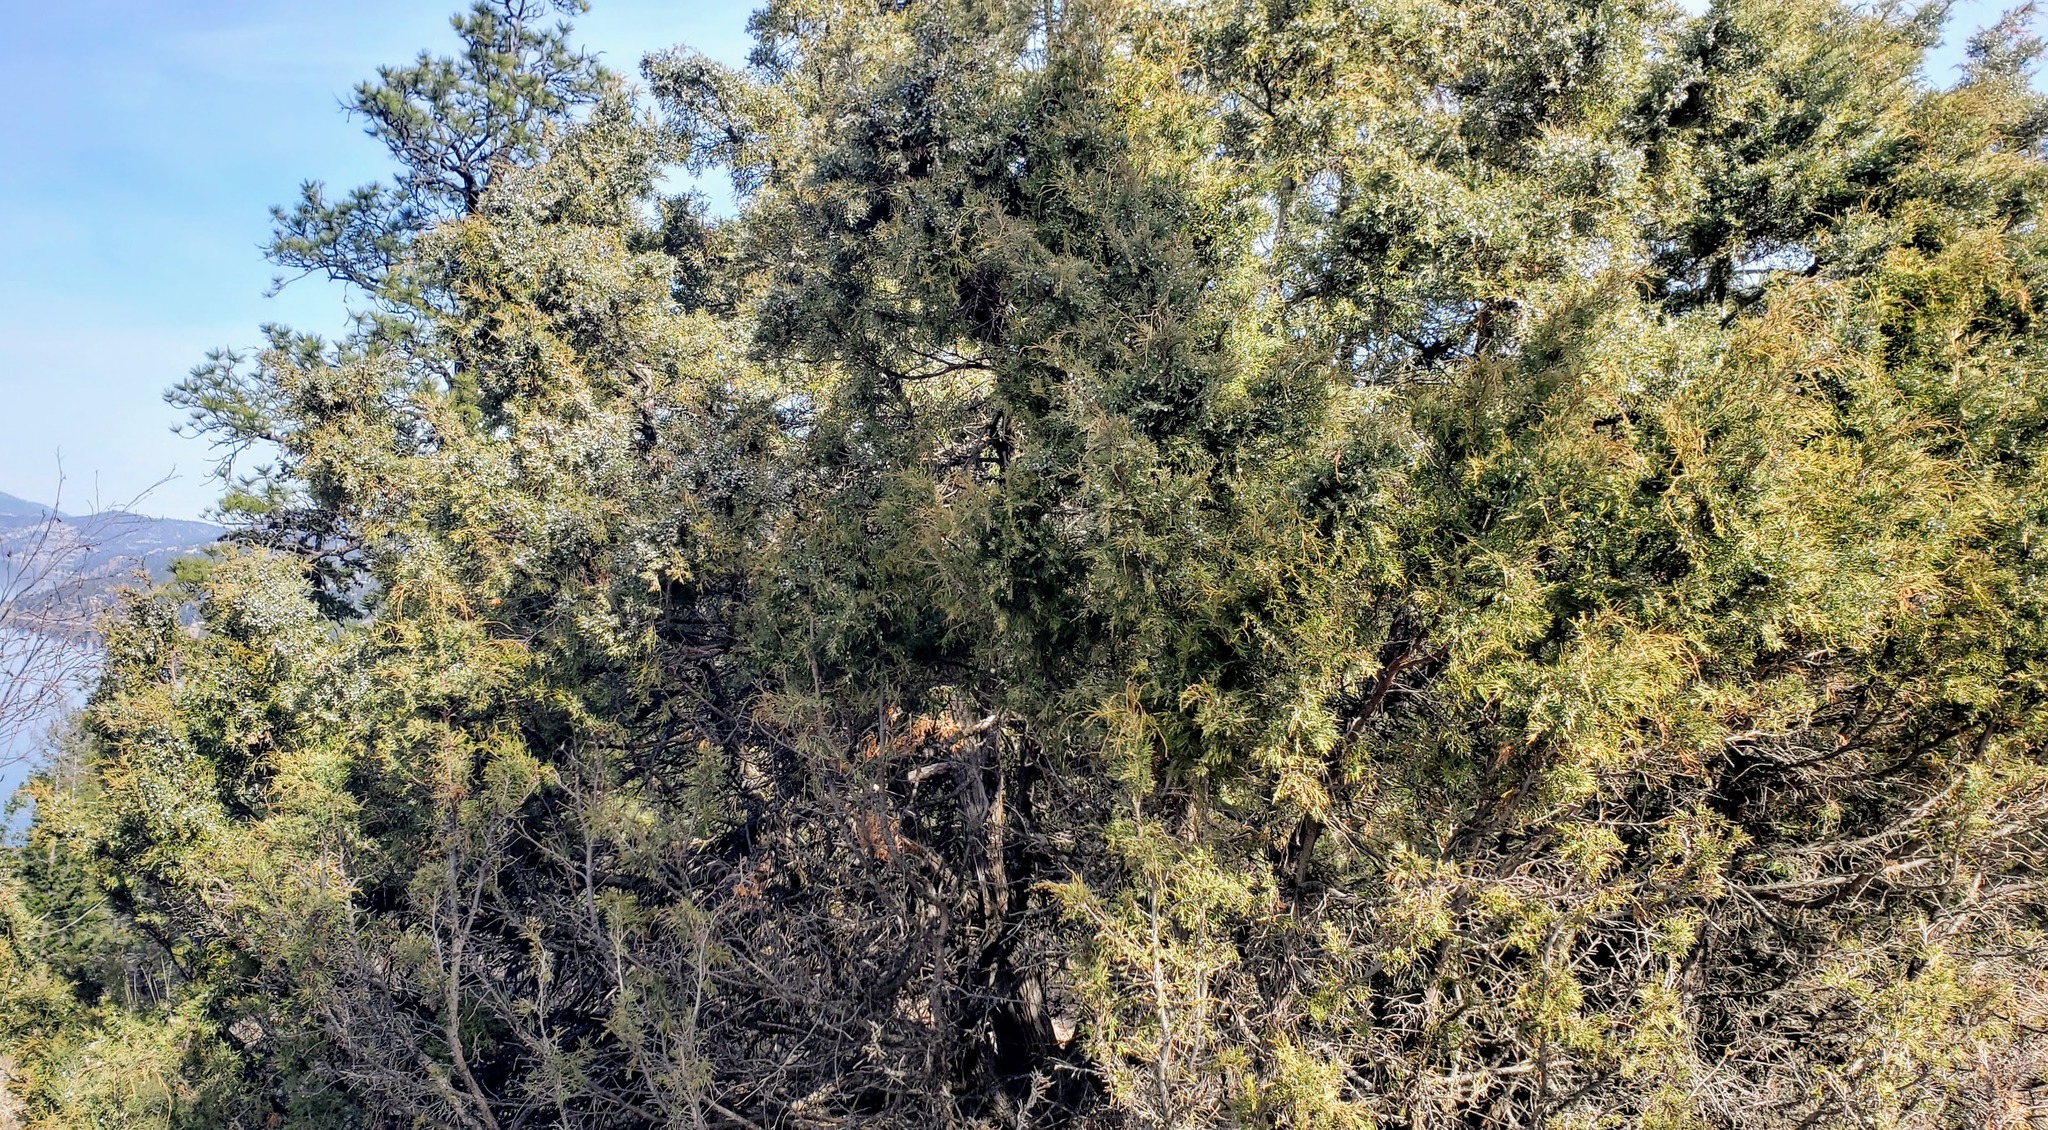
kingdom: Plantae
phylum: Tracheophyta
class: Pinopsida
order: Pinales
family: Cupressaceae
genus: Juniperus
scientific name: Juniperus scopulorum
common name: Rocky mountain juniper
